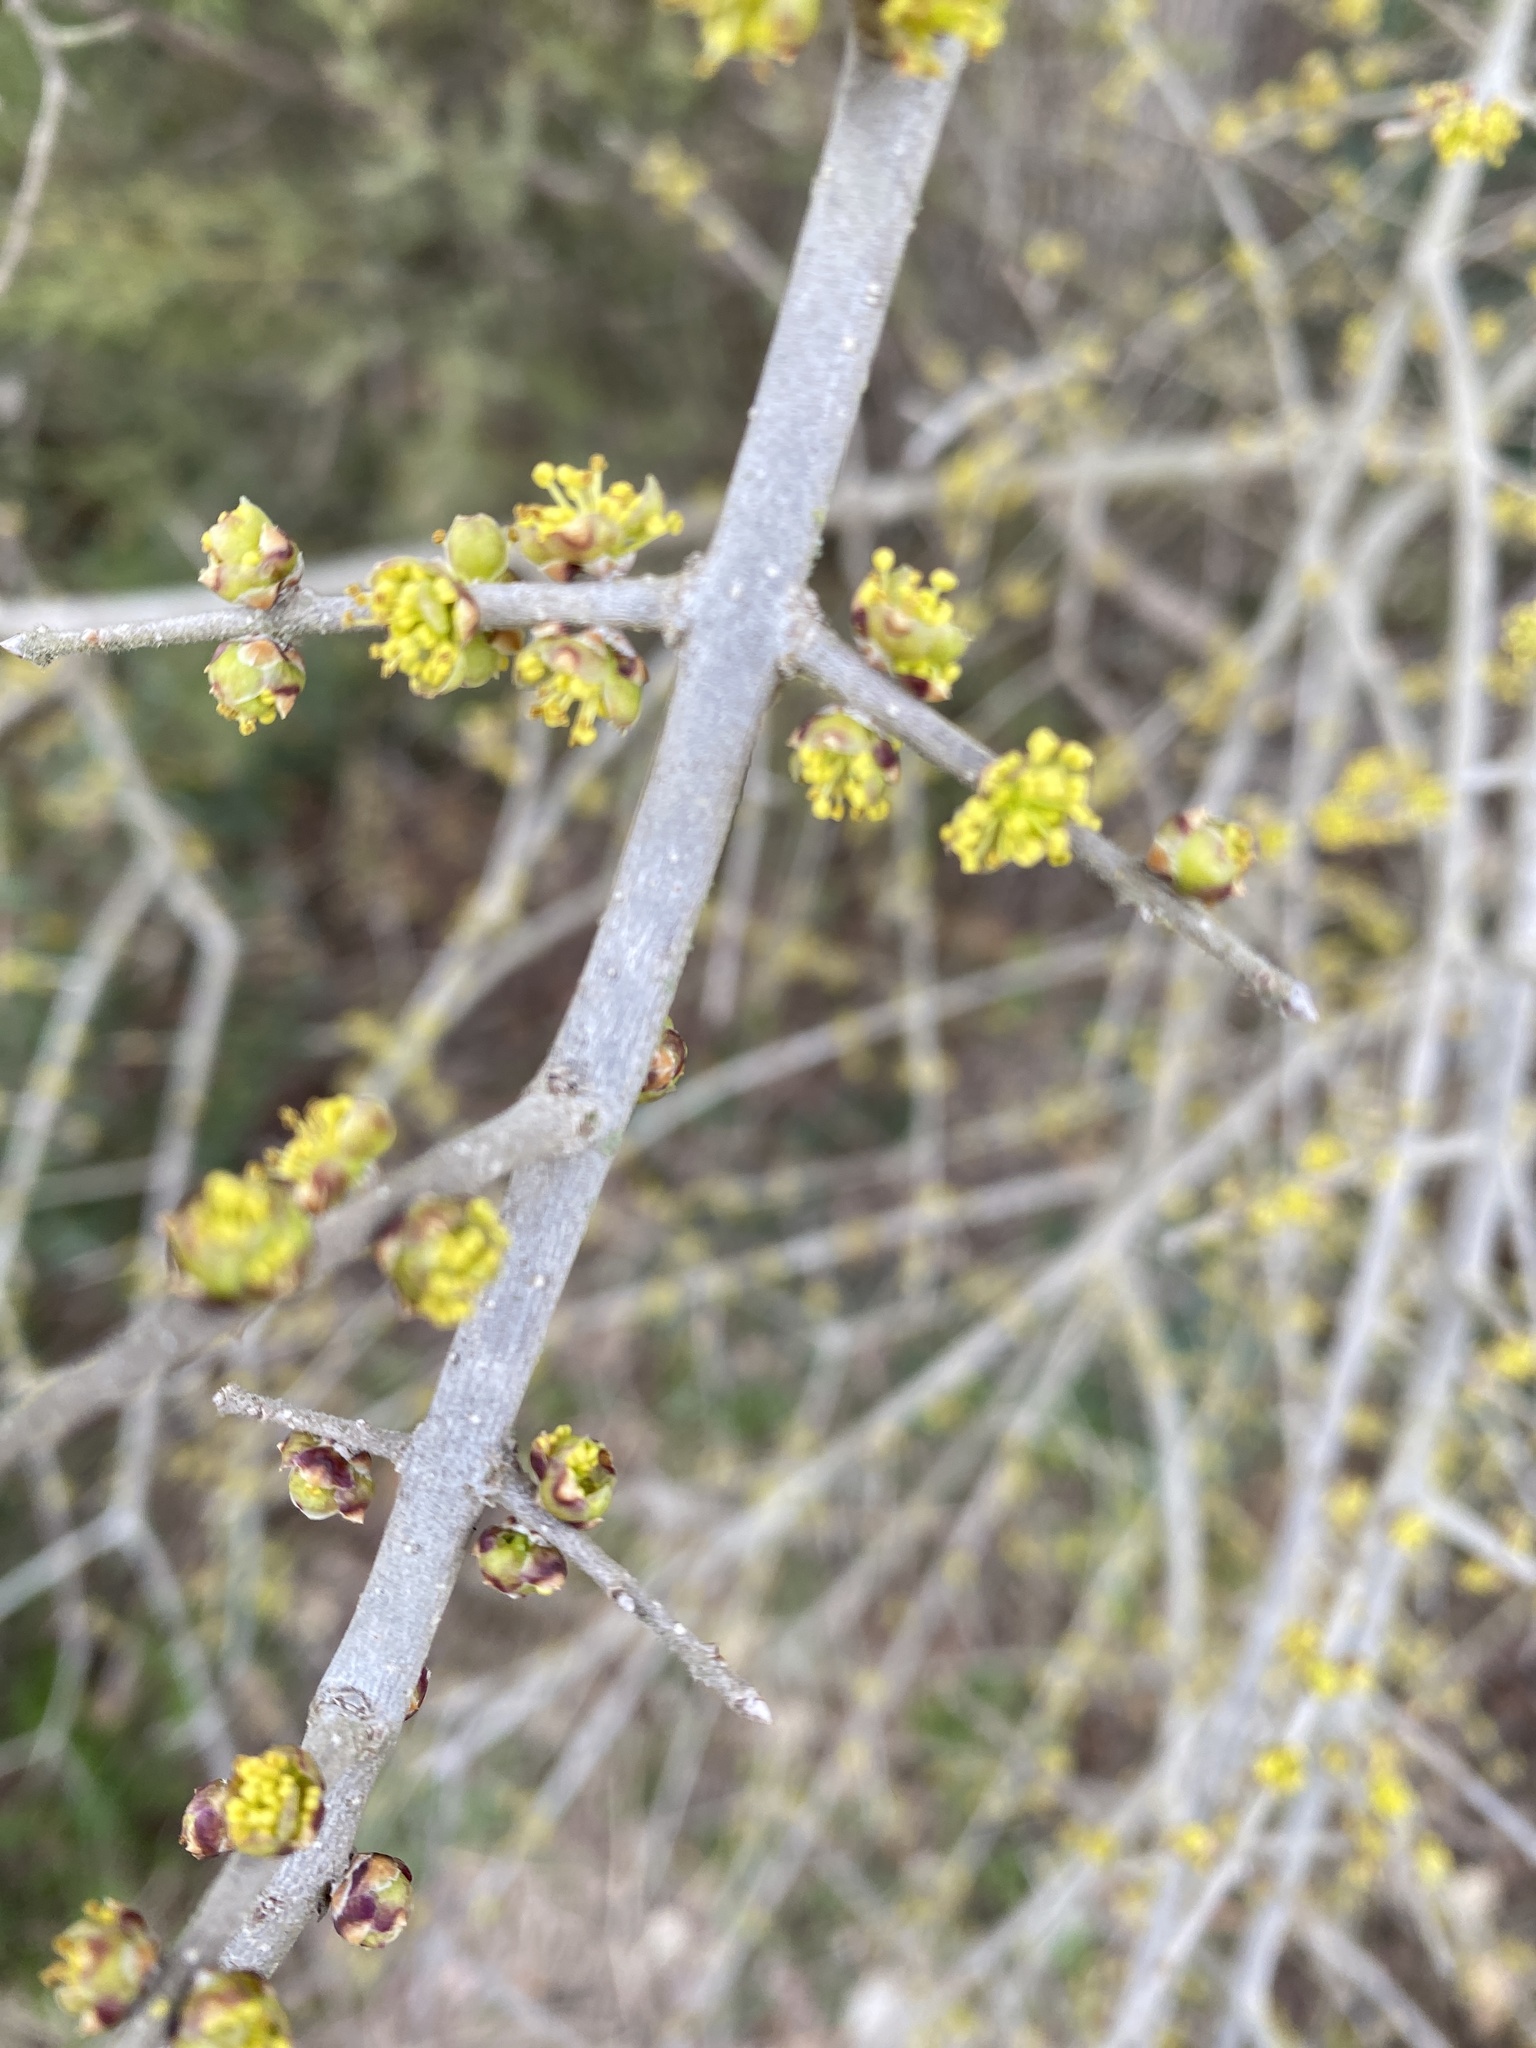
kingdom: Plantae
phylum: Tracheophyta
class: Magnoliopsida
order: Lamiales
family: Oleaceae
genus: Forestiera
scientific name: Forestiera pubescens
